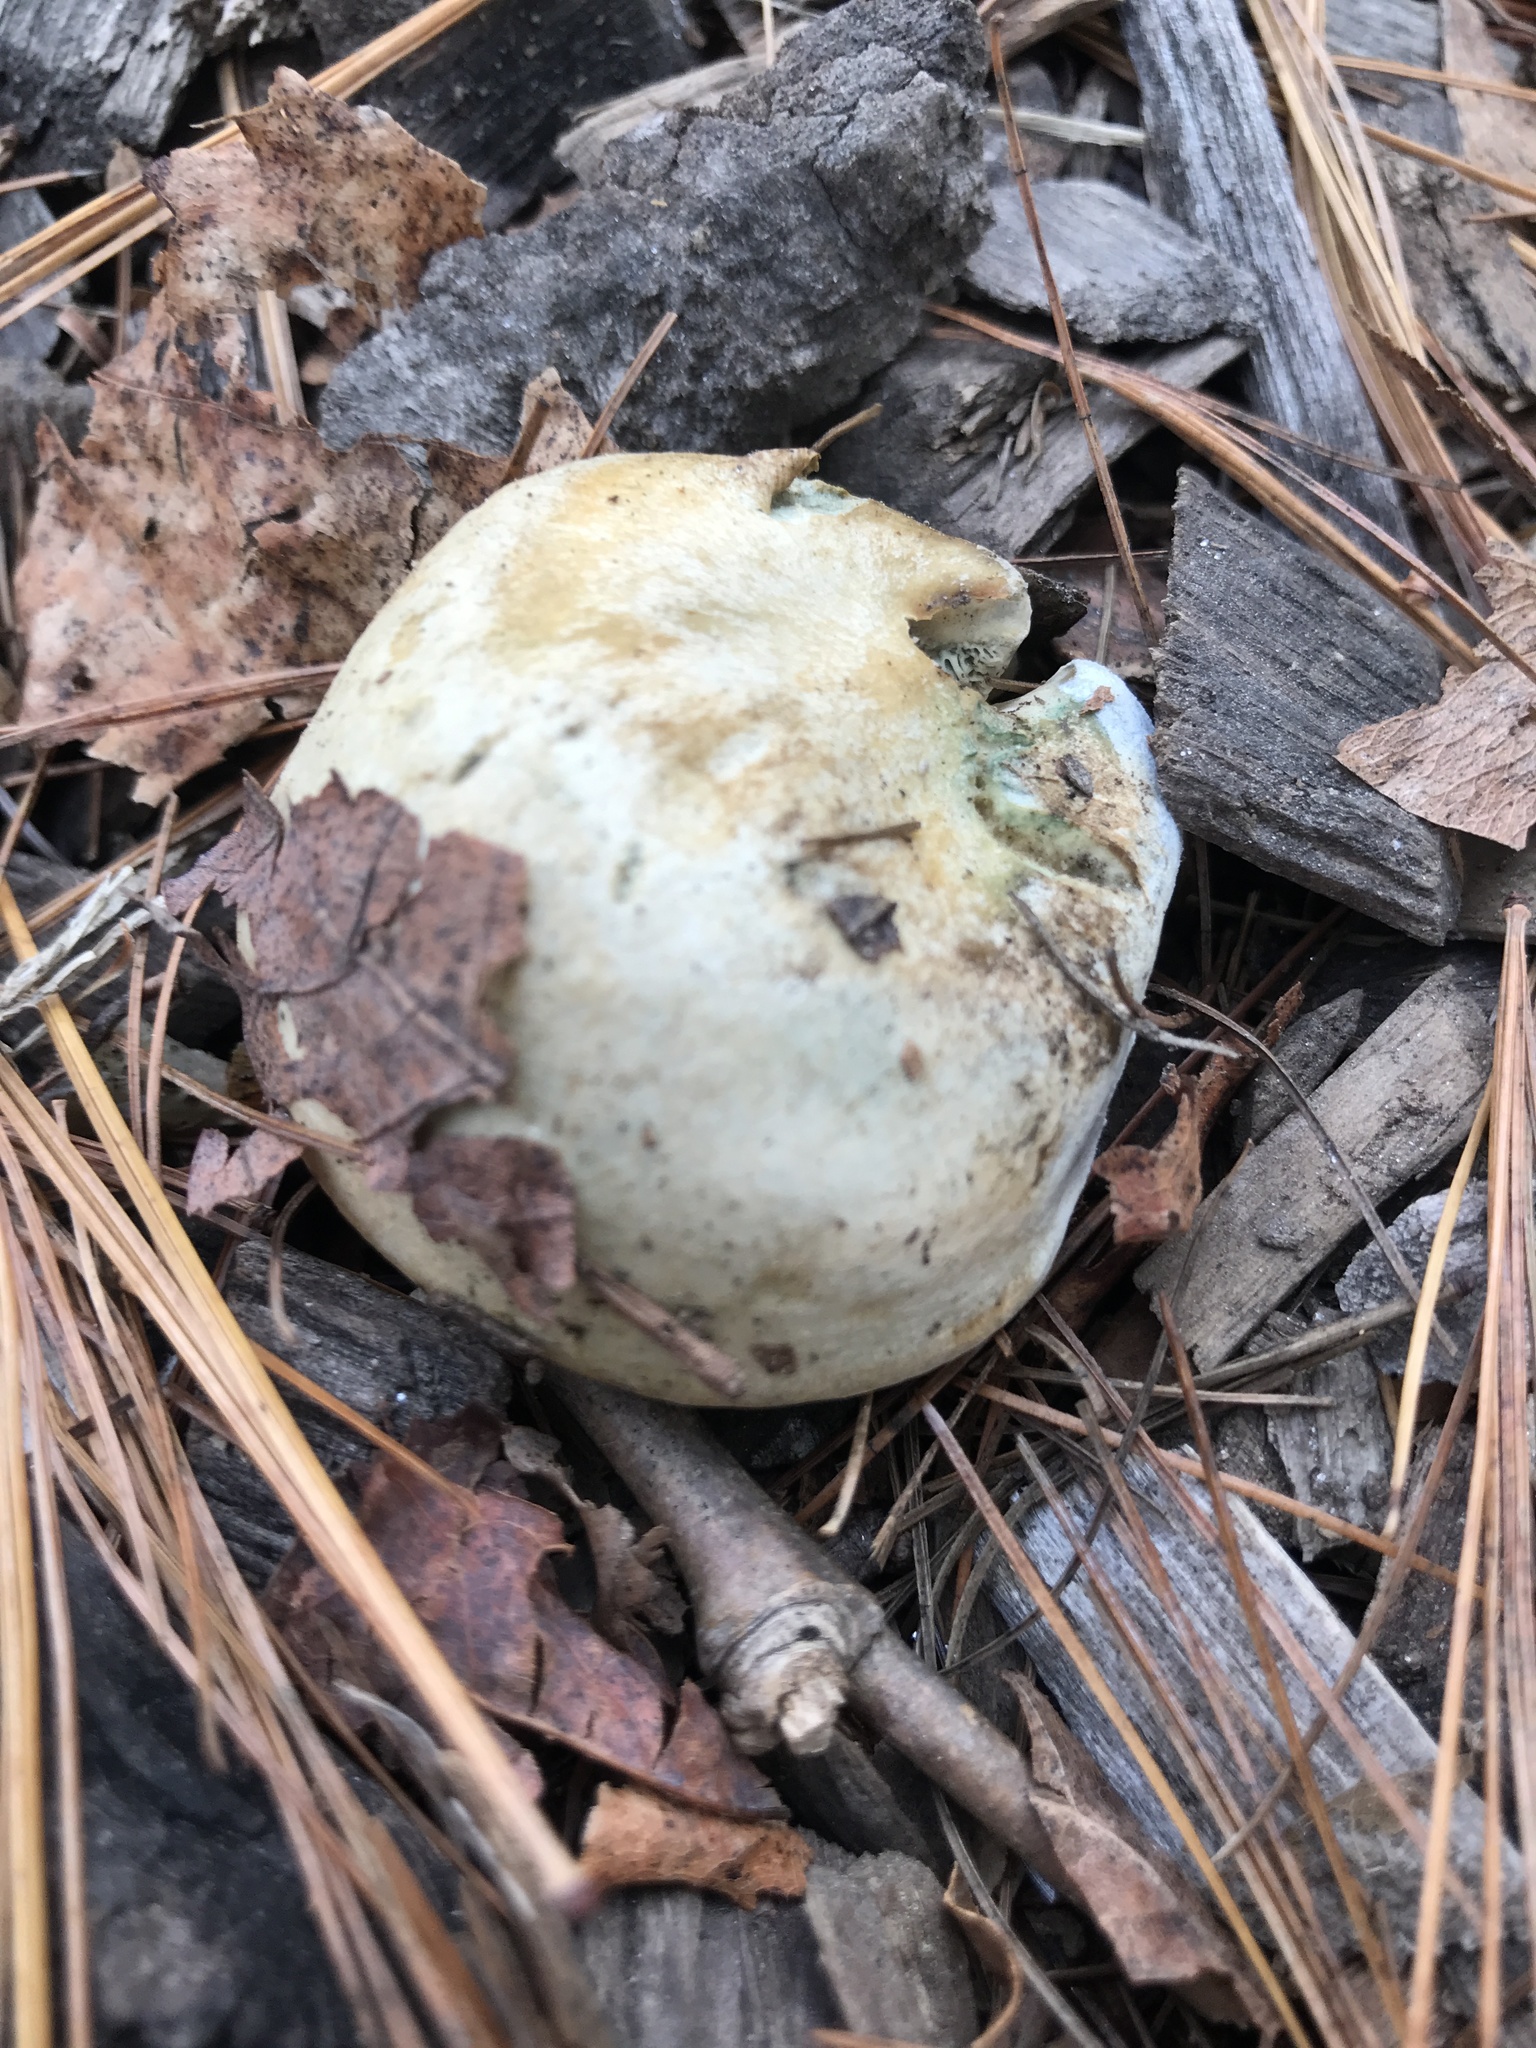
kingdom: Fungi
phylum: Basidiomycota
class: Agaricomycetes
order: Russulales
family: Russulaceae
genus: Lactarius
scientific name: Lactarius chelidonium
